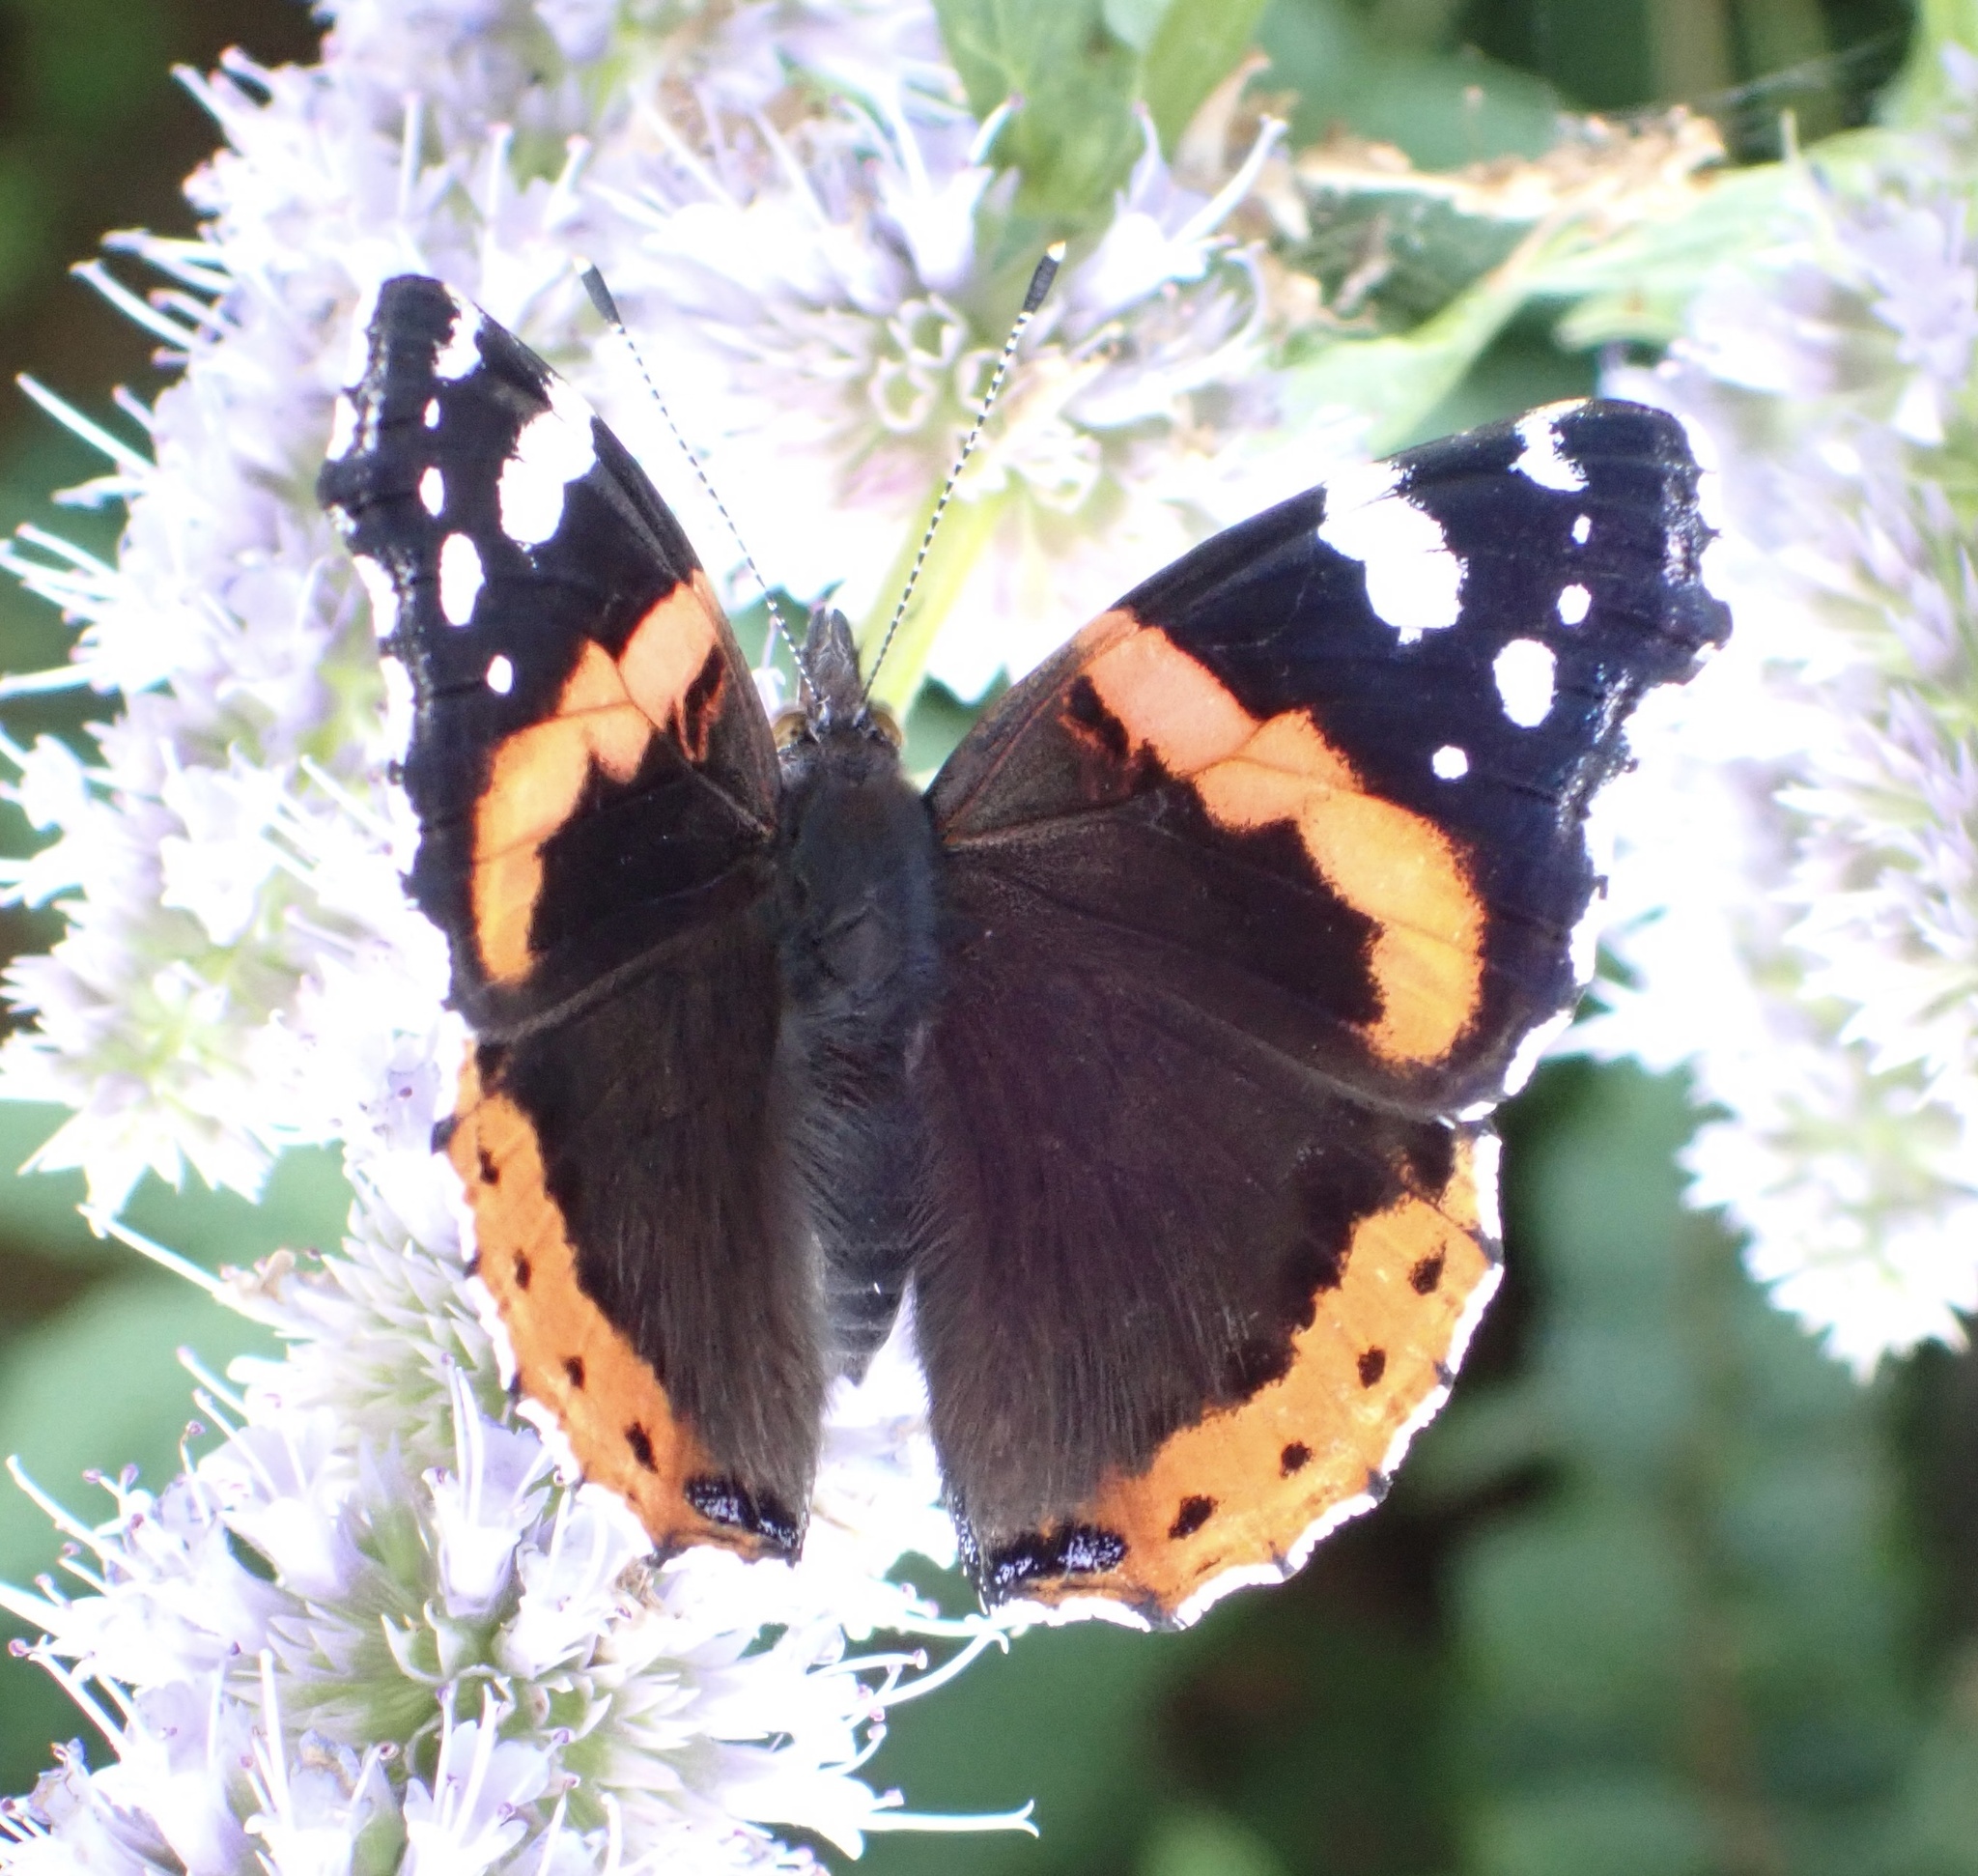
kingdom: Animalia
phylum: Arthropoda
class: Insecta
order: Lepidoptera
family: Nymphalidae
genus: Vanessa
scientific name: Vanessa atalanta
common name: Red admiral
